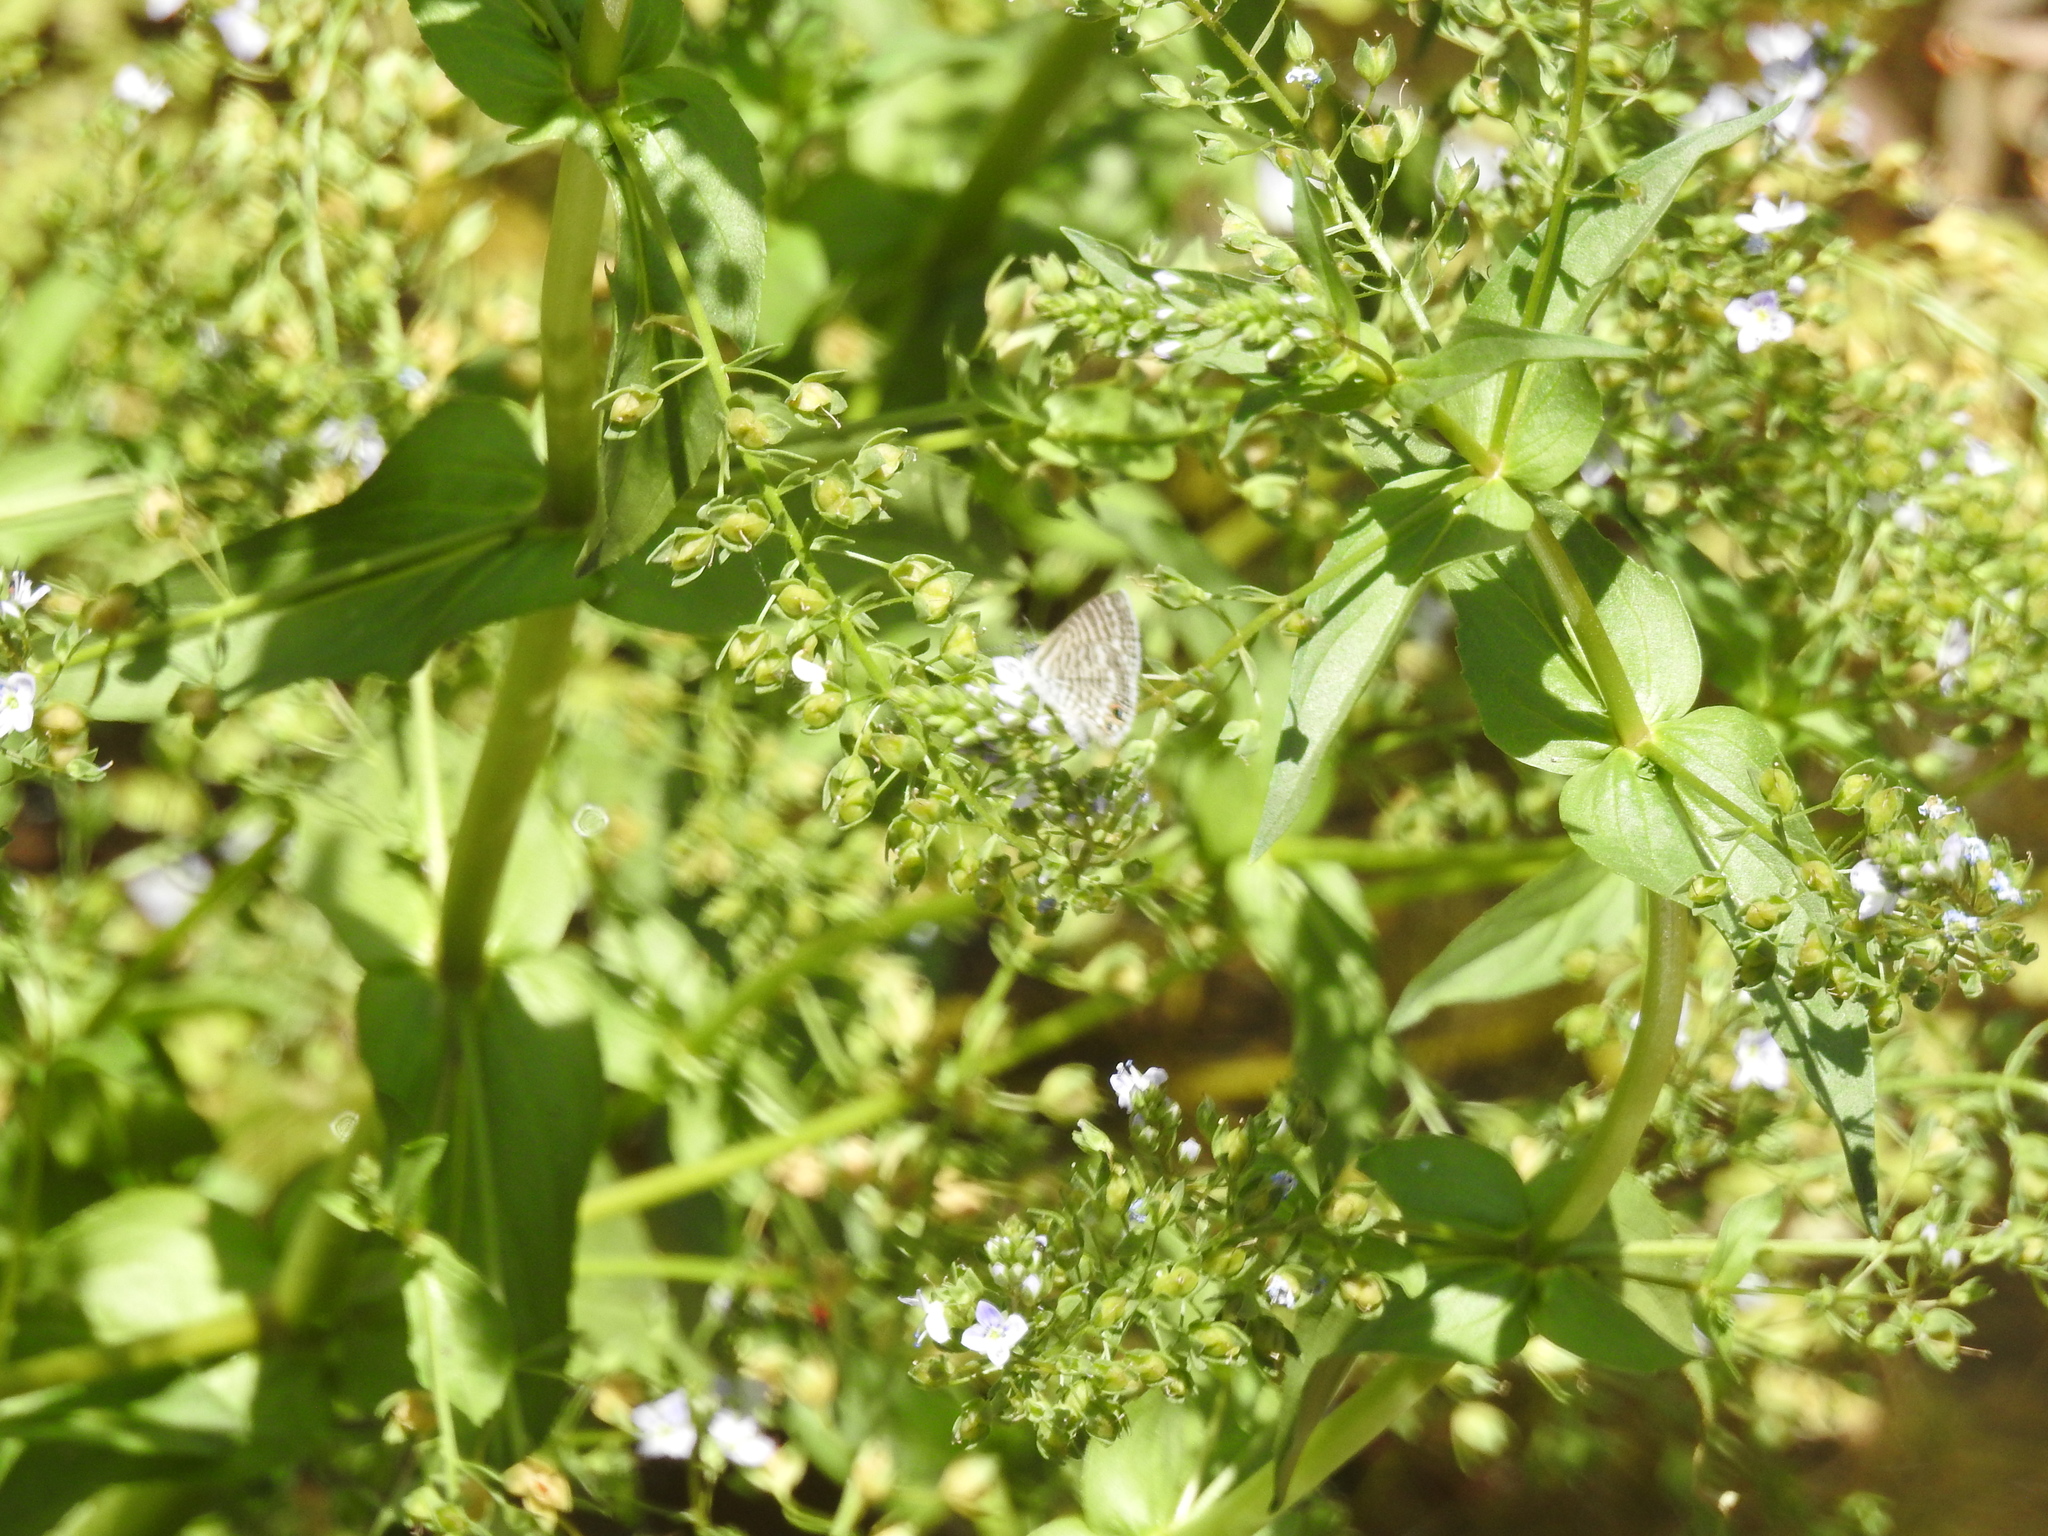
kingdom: Animalia
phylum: Arthropoda
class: Insecta
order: Lepidoptera
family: Lycaenidae
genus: Leptotes
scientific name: Leptotes marina
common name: Marine blue
